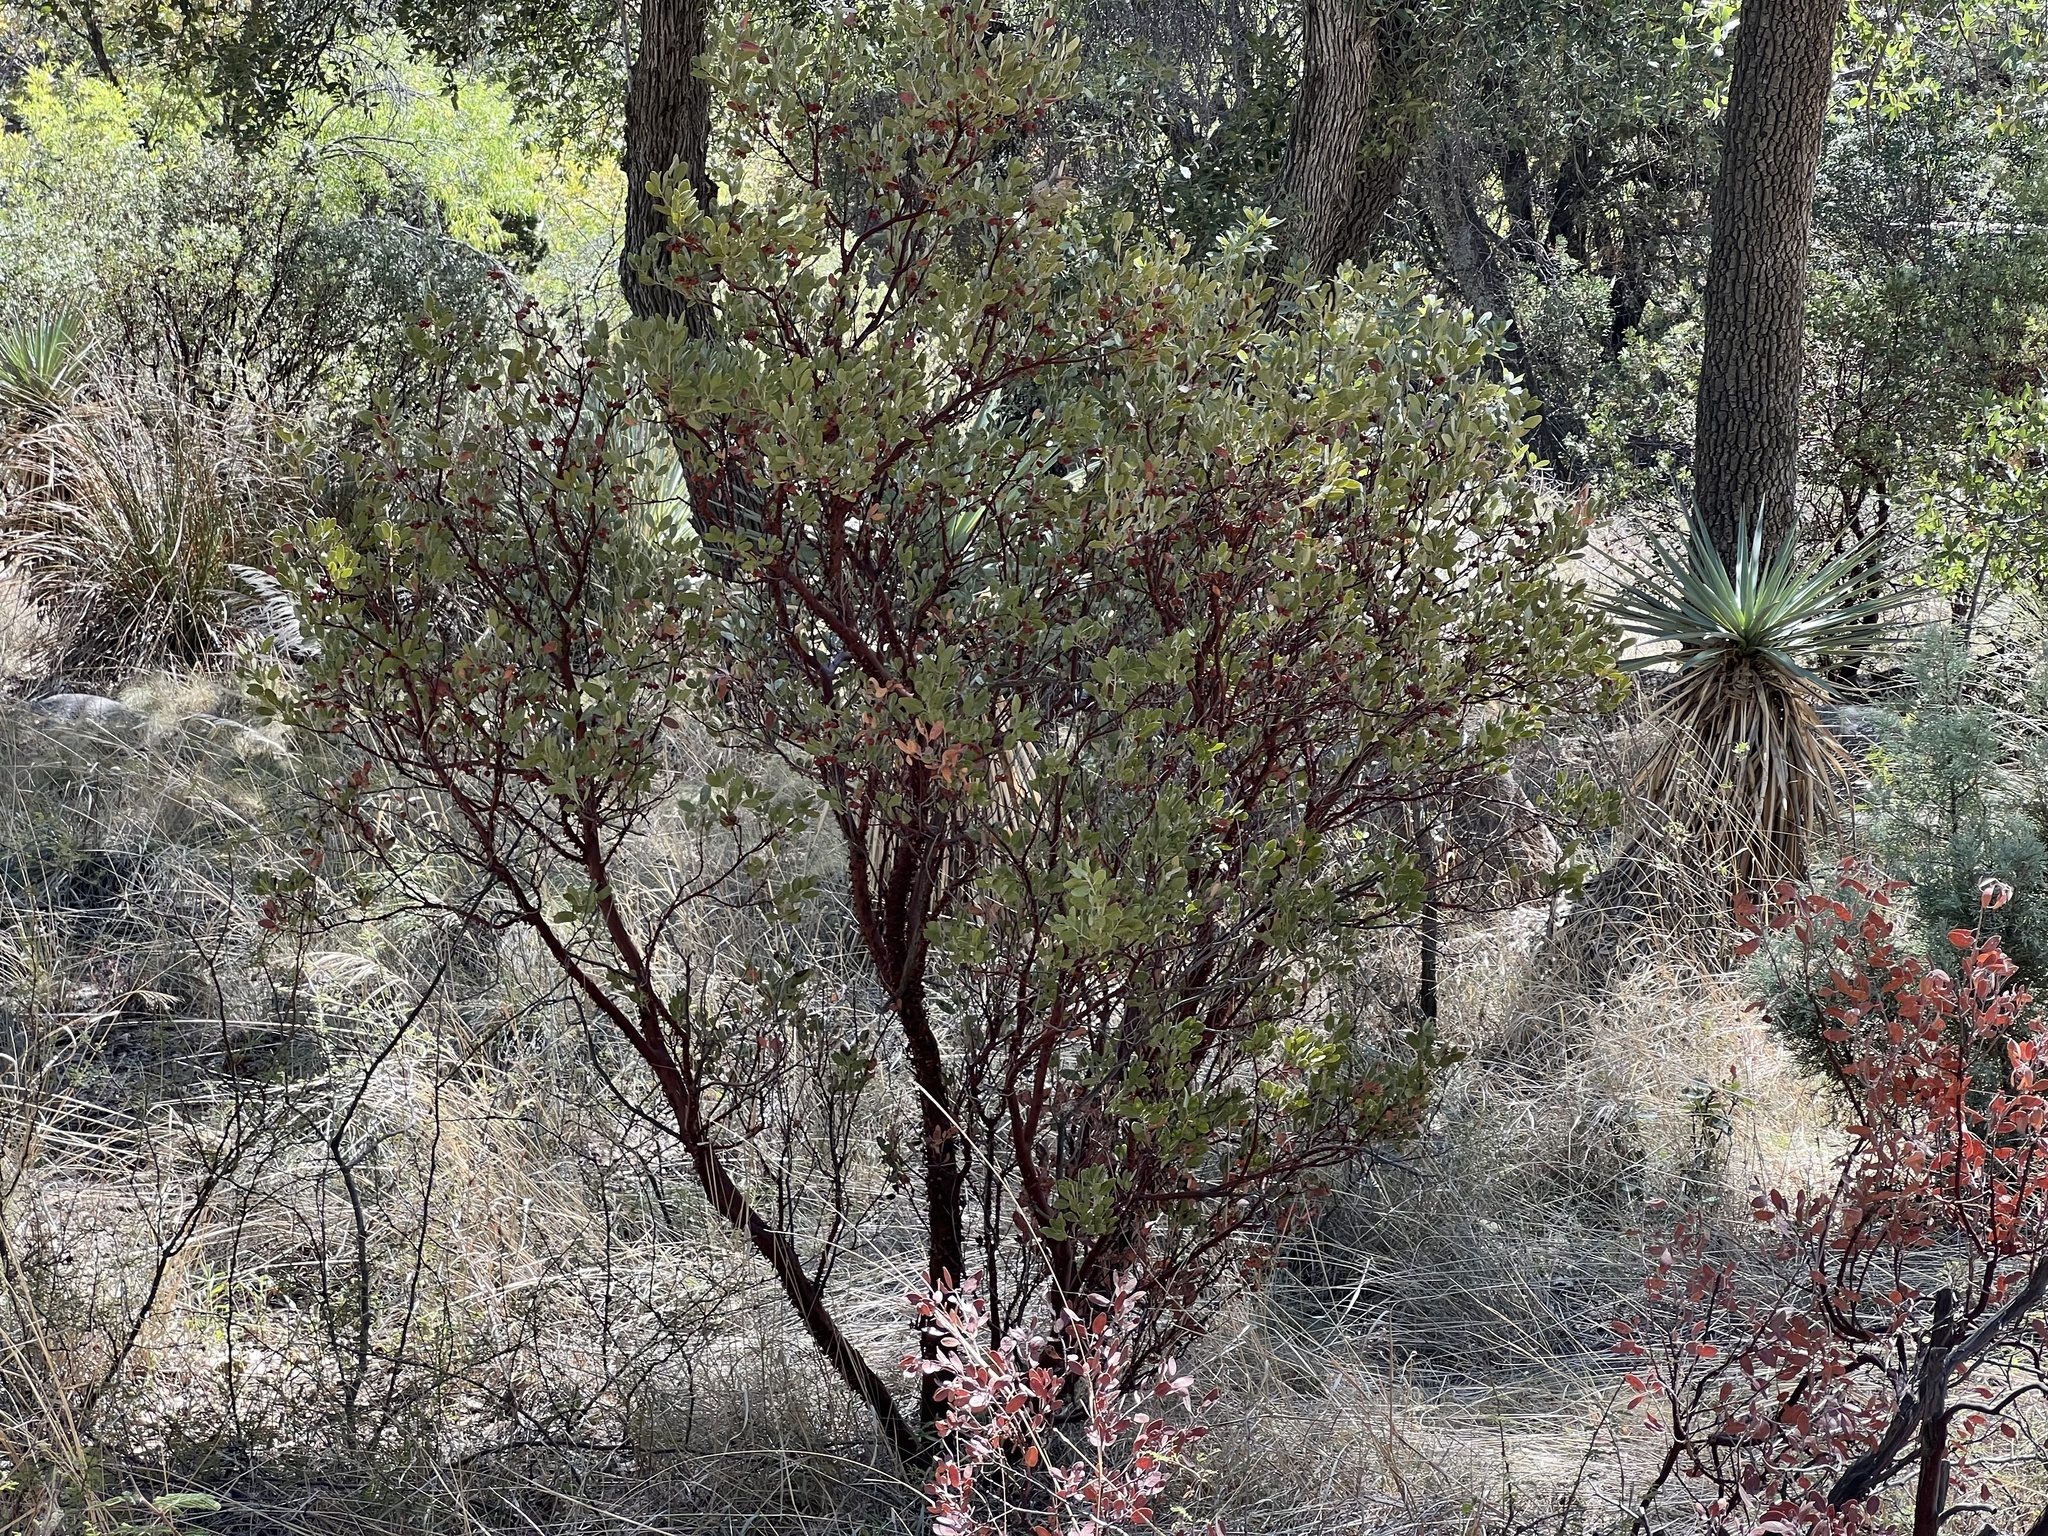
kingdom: Plantae
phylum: Tracheophyta
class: Magnoliopsida
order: Ericales
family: Ericaceae
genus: Arctostaphylos
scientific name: Arctostaphylos pungens
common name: Mexican manzanita
